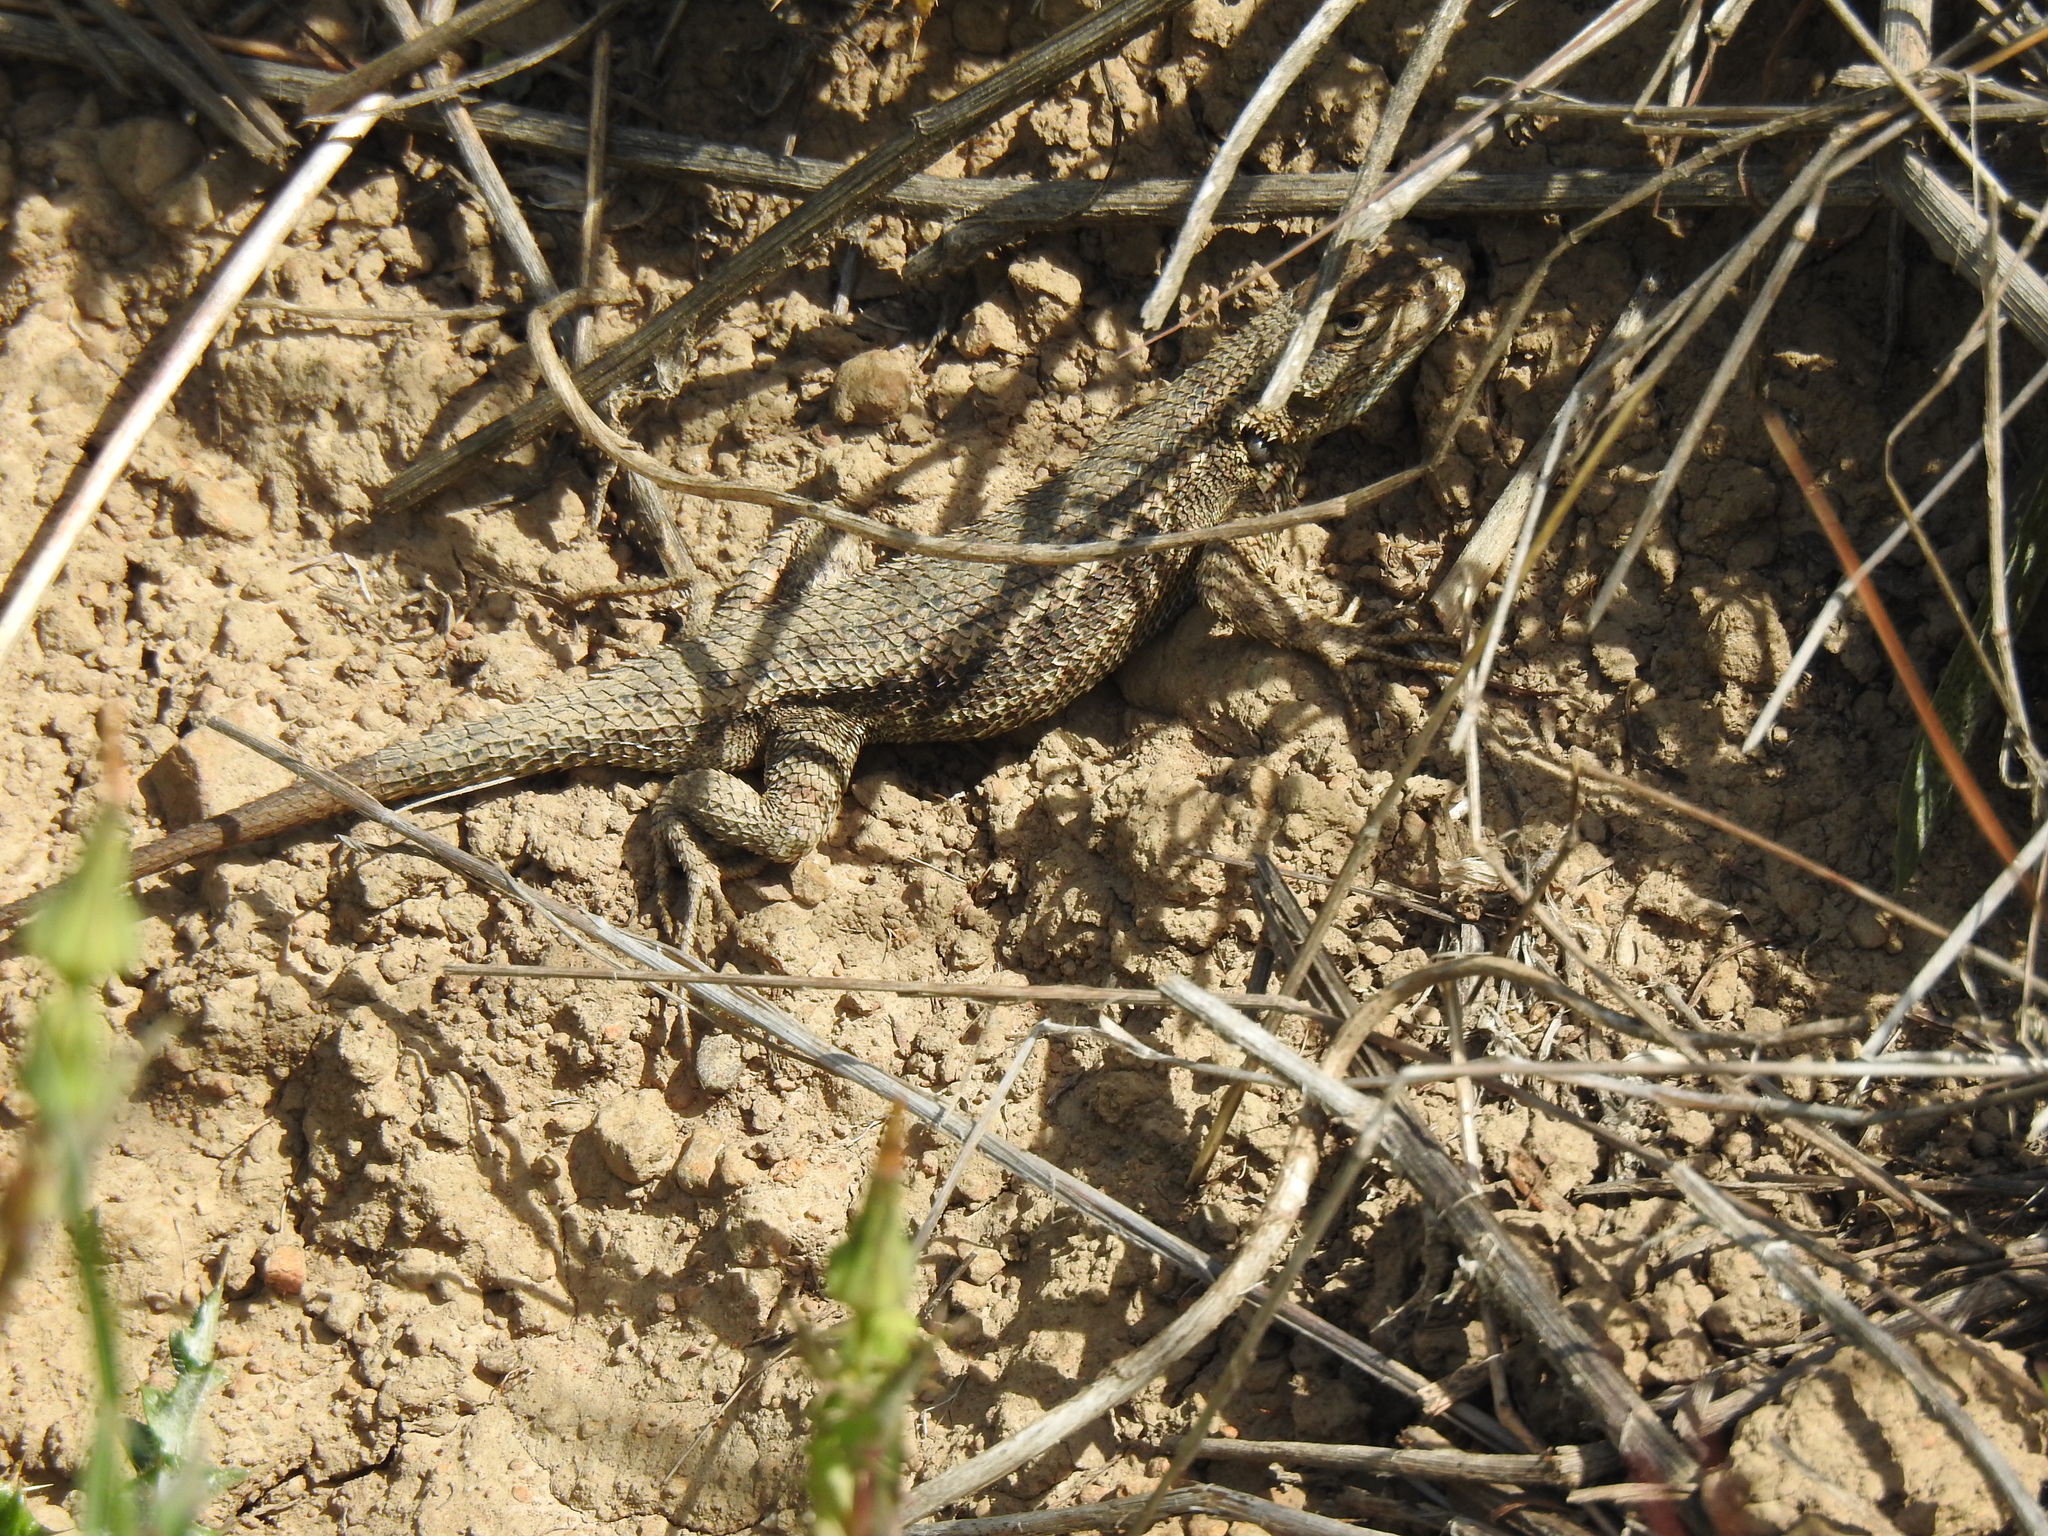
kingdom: Animalia
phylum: Chordata
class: Squamata
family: Phrynosomatidae
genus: Sceloporus
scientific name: Sceloporus occidentalis
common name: Western fence lizard
